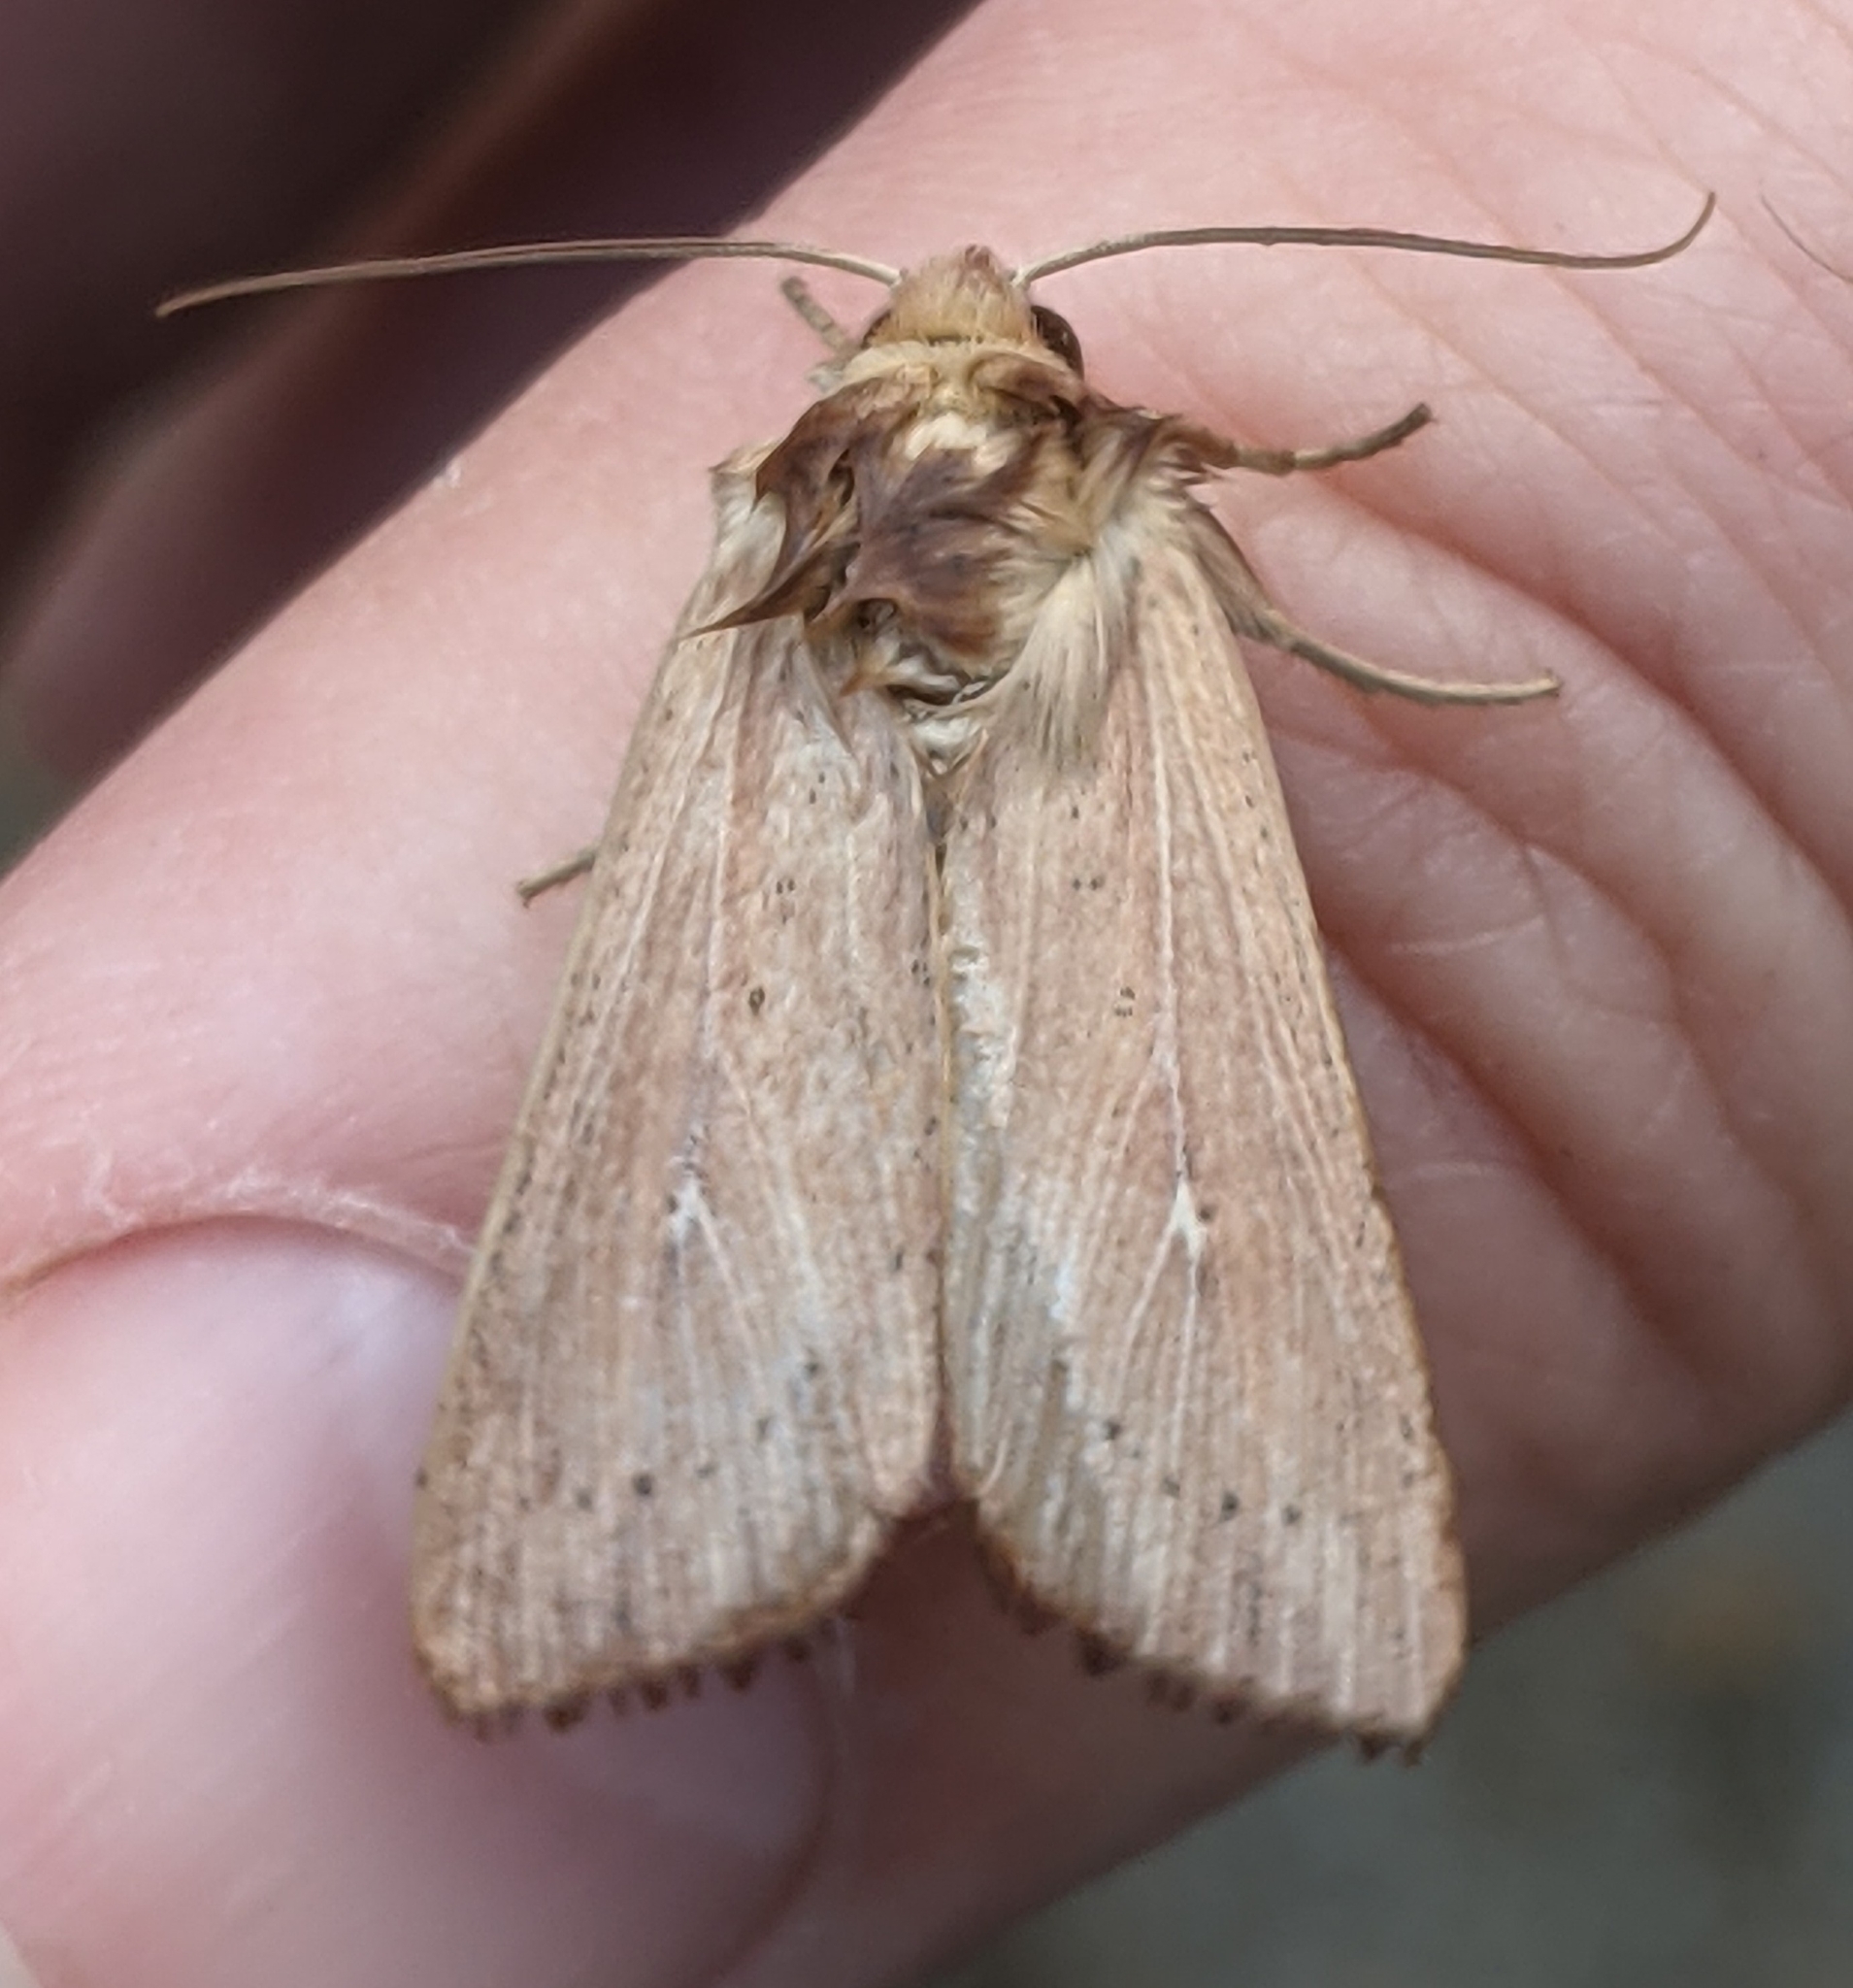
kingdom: Animalia
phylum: Arthropoda
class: Insecta
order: Lepidoptera
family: Noctuidae
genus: Leucania
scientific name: Leucania farcta
